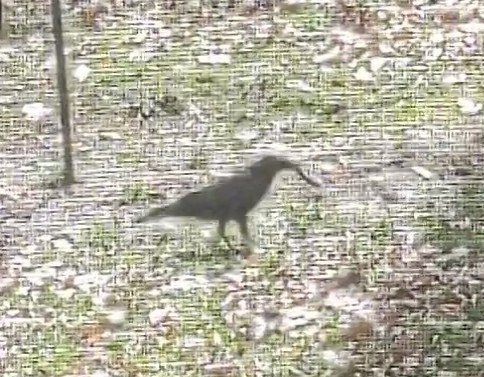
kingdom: Animalia
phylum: Chordata
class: Aves
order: Passeriformes
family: Corvidae
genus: Corvus
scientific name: Corvus brachyrhynchos
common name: American crow
